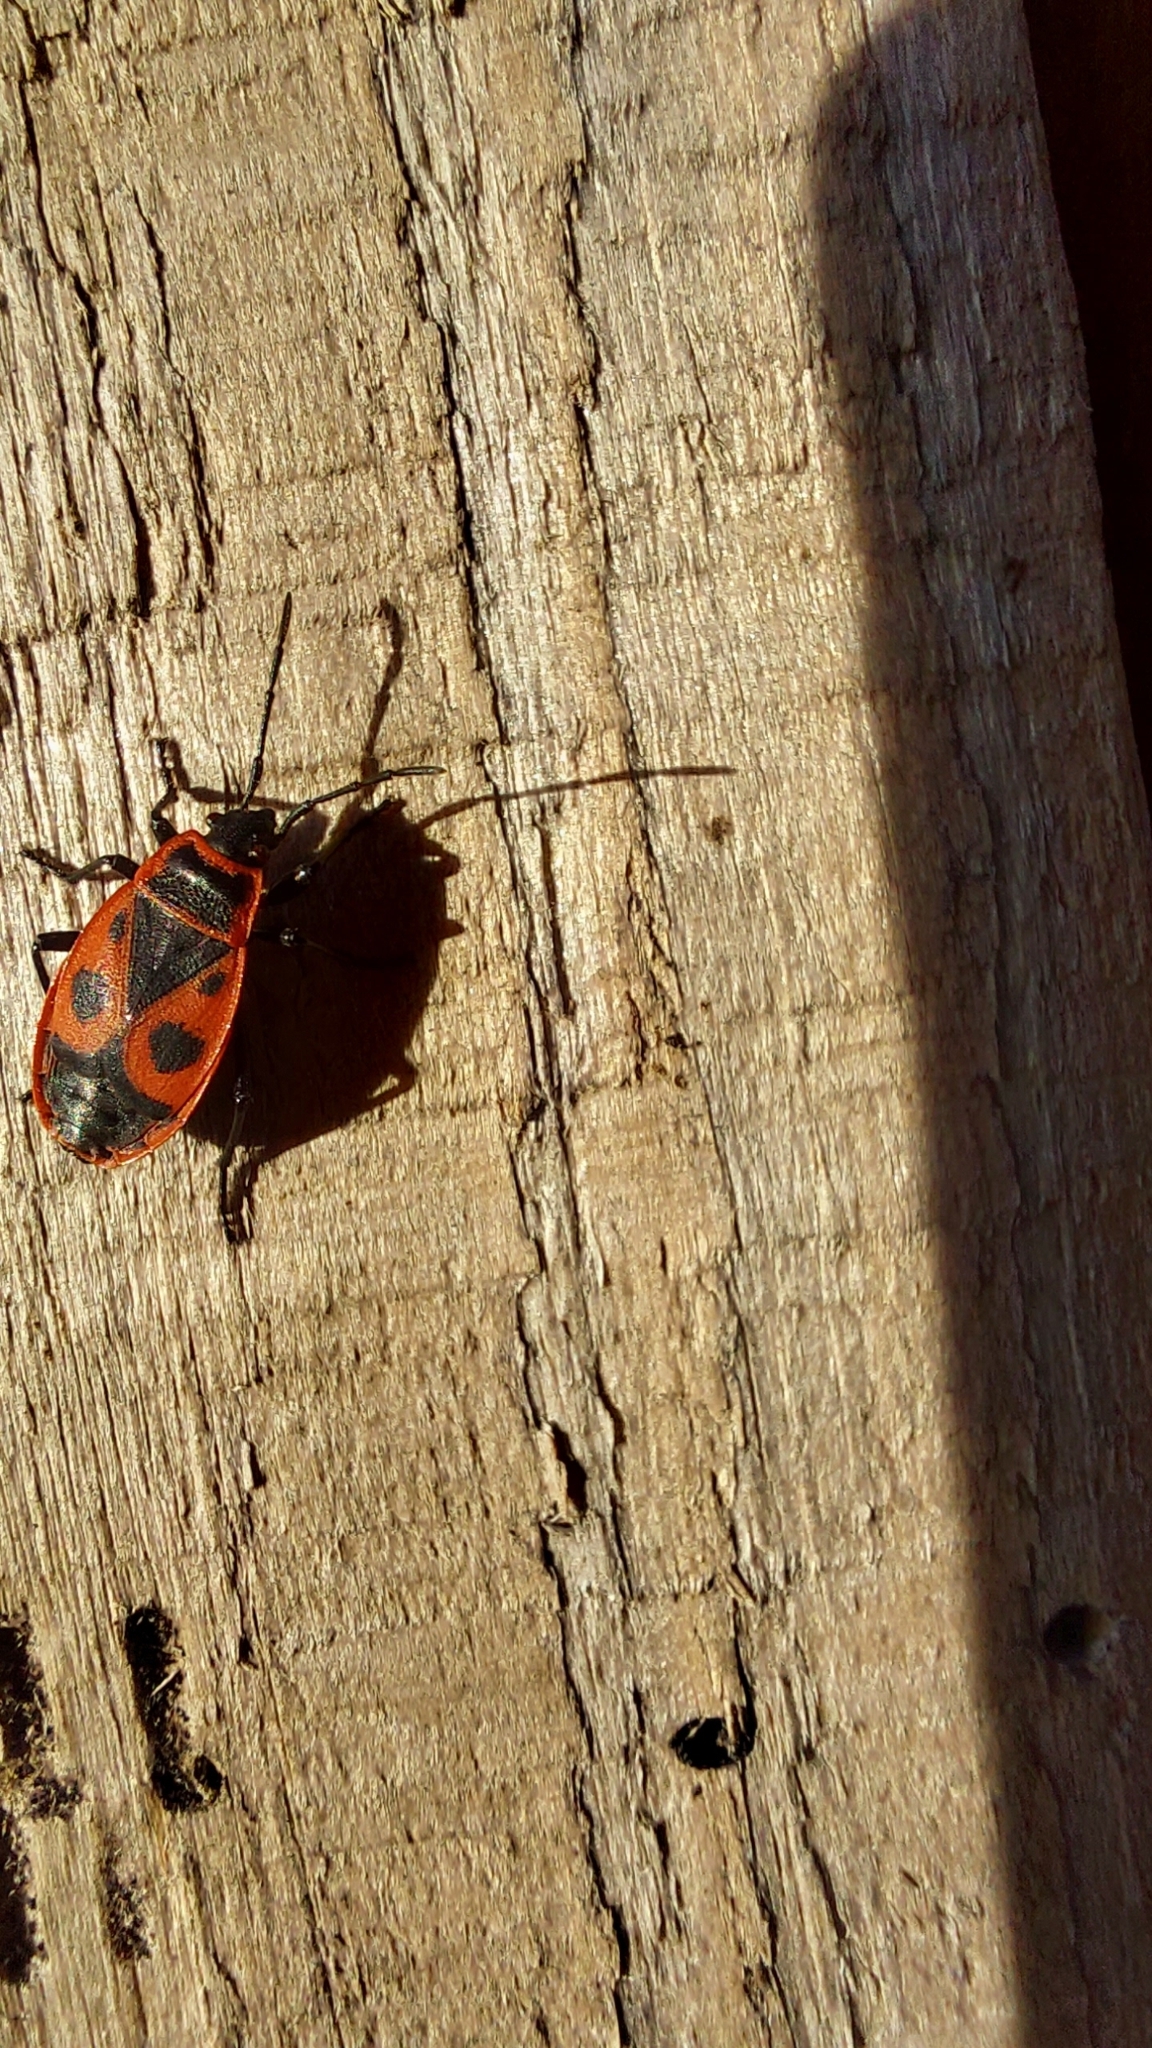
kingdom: Animalia
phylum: Arthropoda
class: Insecta
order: Hemiptera
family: Pyrrhocoridae
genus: Pyrrhocoris
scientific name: Pyrrhocoris apterus
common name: Firebug
